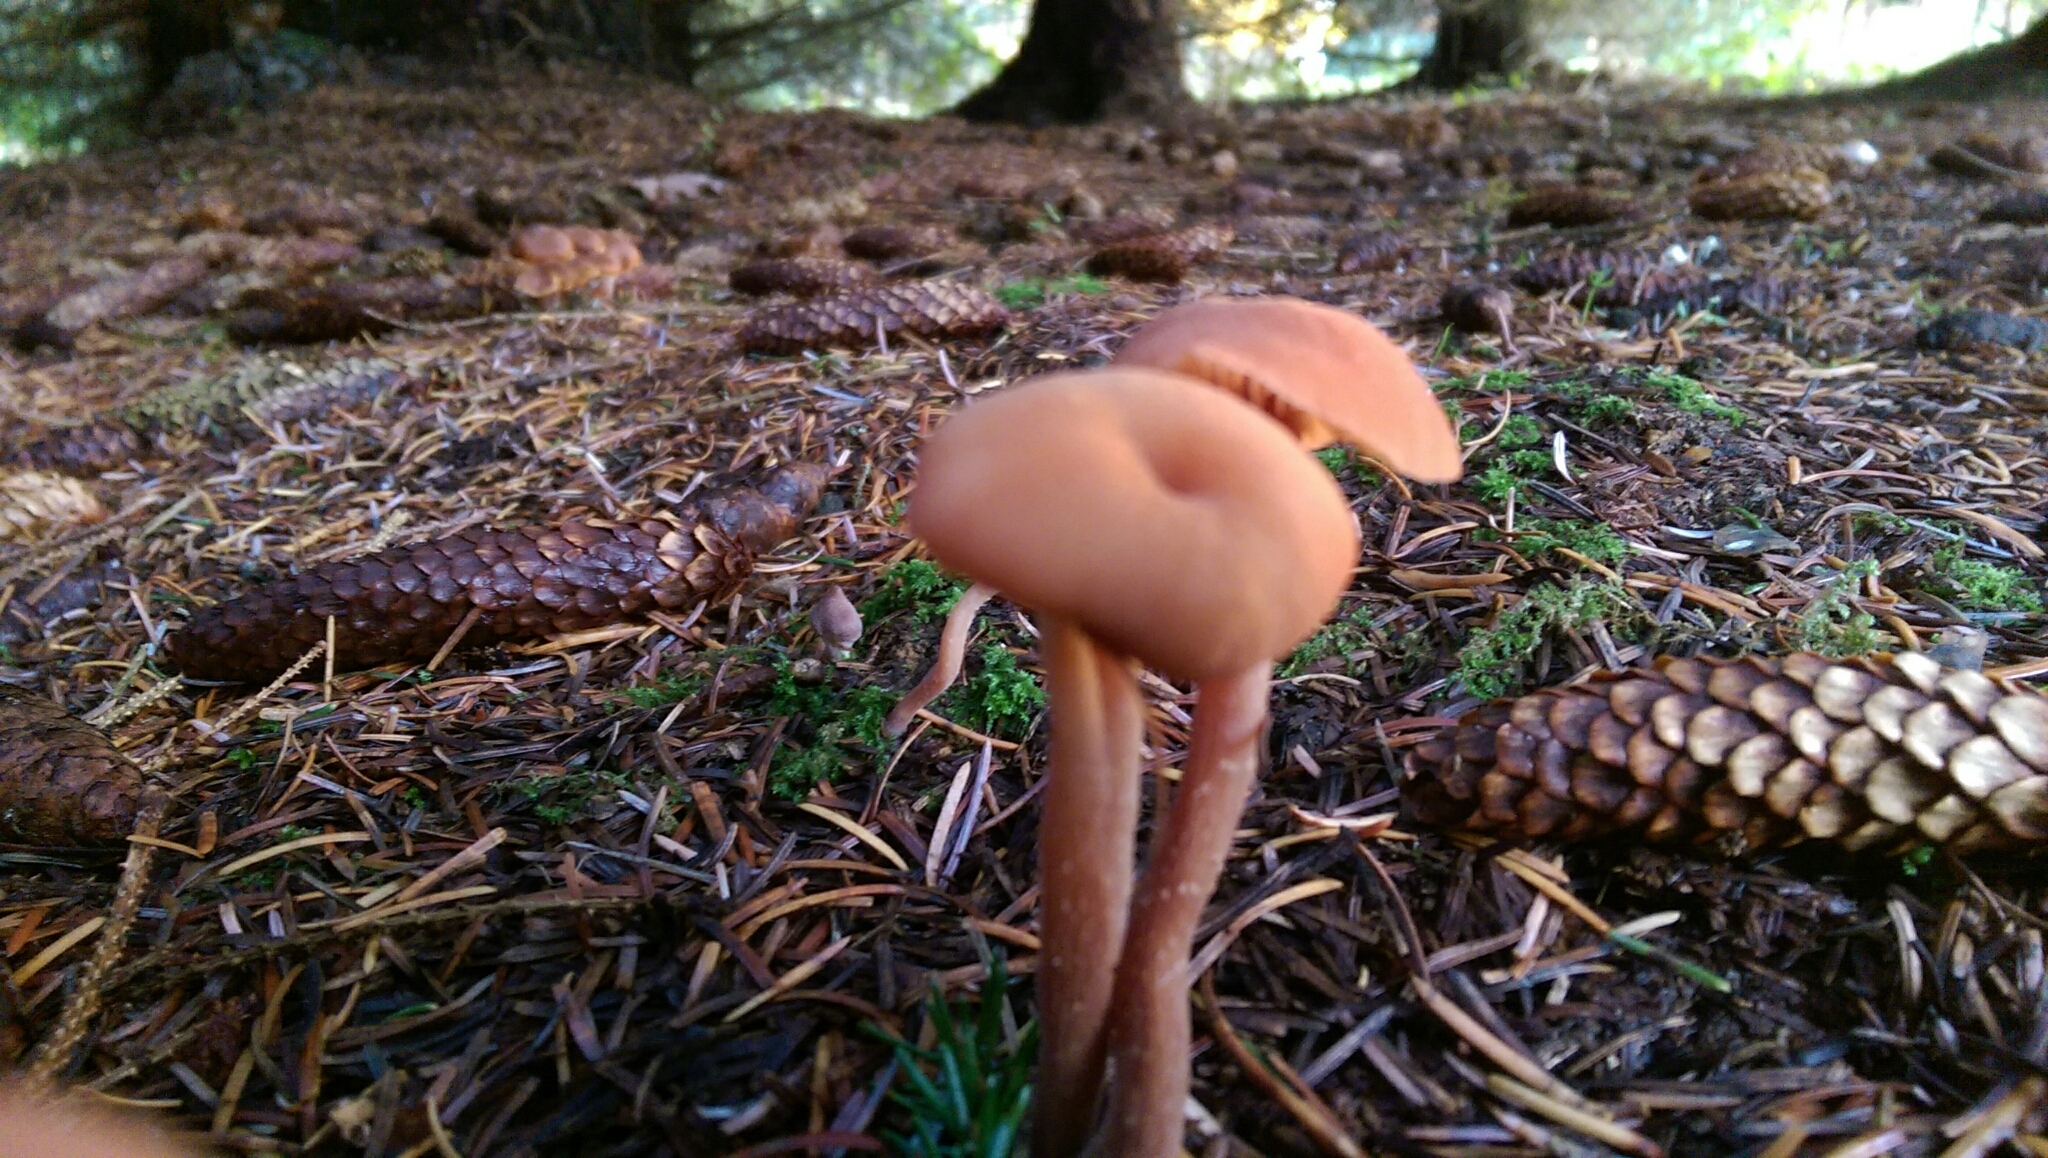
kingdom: Fungi
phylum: Basidiomycota
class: Agaricomycetes
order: Agaricales
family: Hydnangiaceae
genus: Laccaria
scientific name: Laccaria laccata
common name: Deceiver
